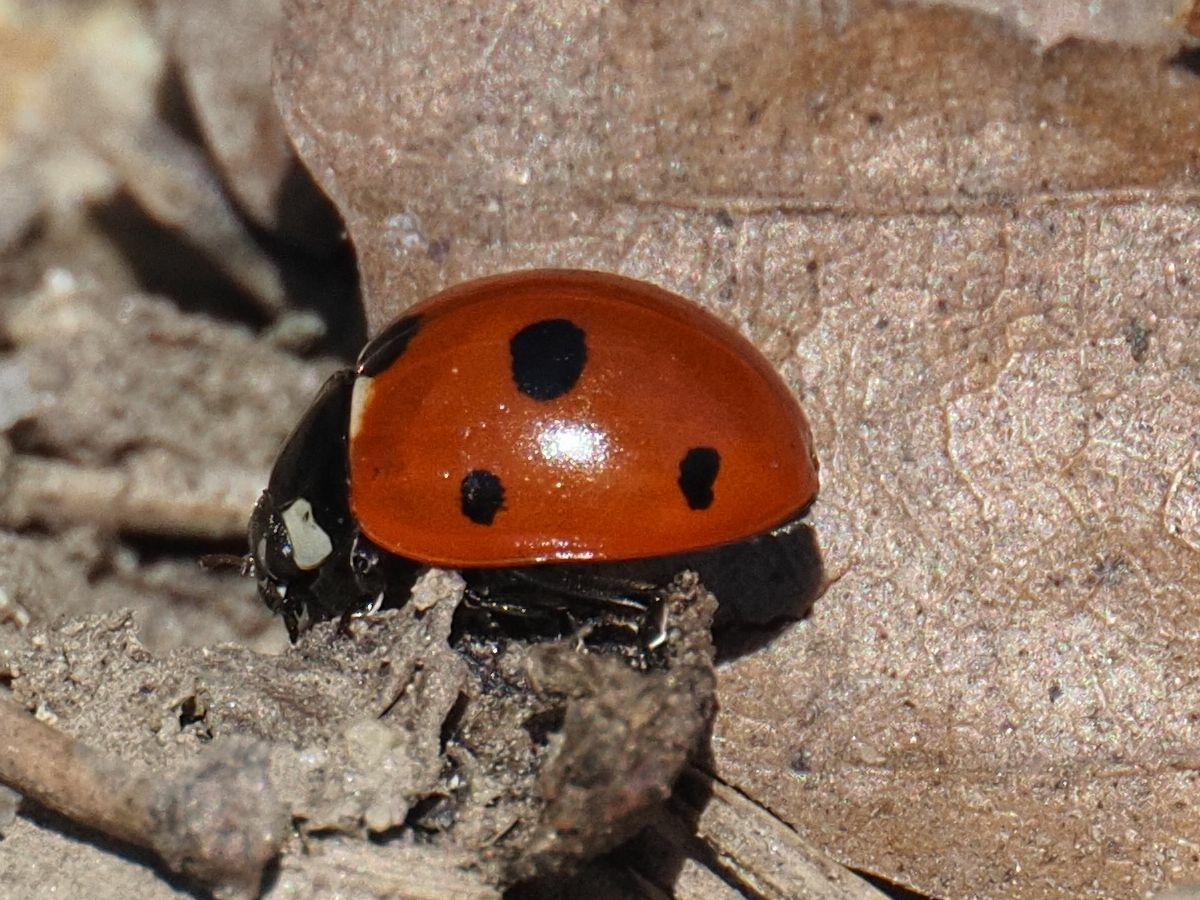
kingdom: Animalia
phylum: Arthropoda
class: Insecta
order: Coleoptera
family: Coccinellidae
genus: Coccinella
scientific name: Coccinella septempunctata
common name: Sevenspotted lady beetle
